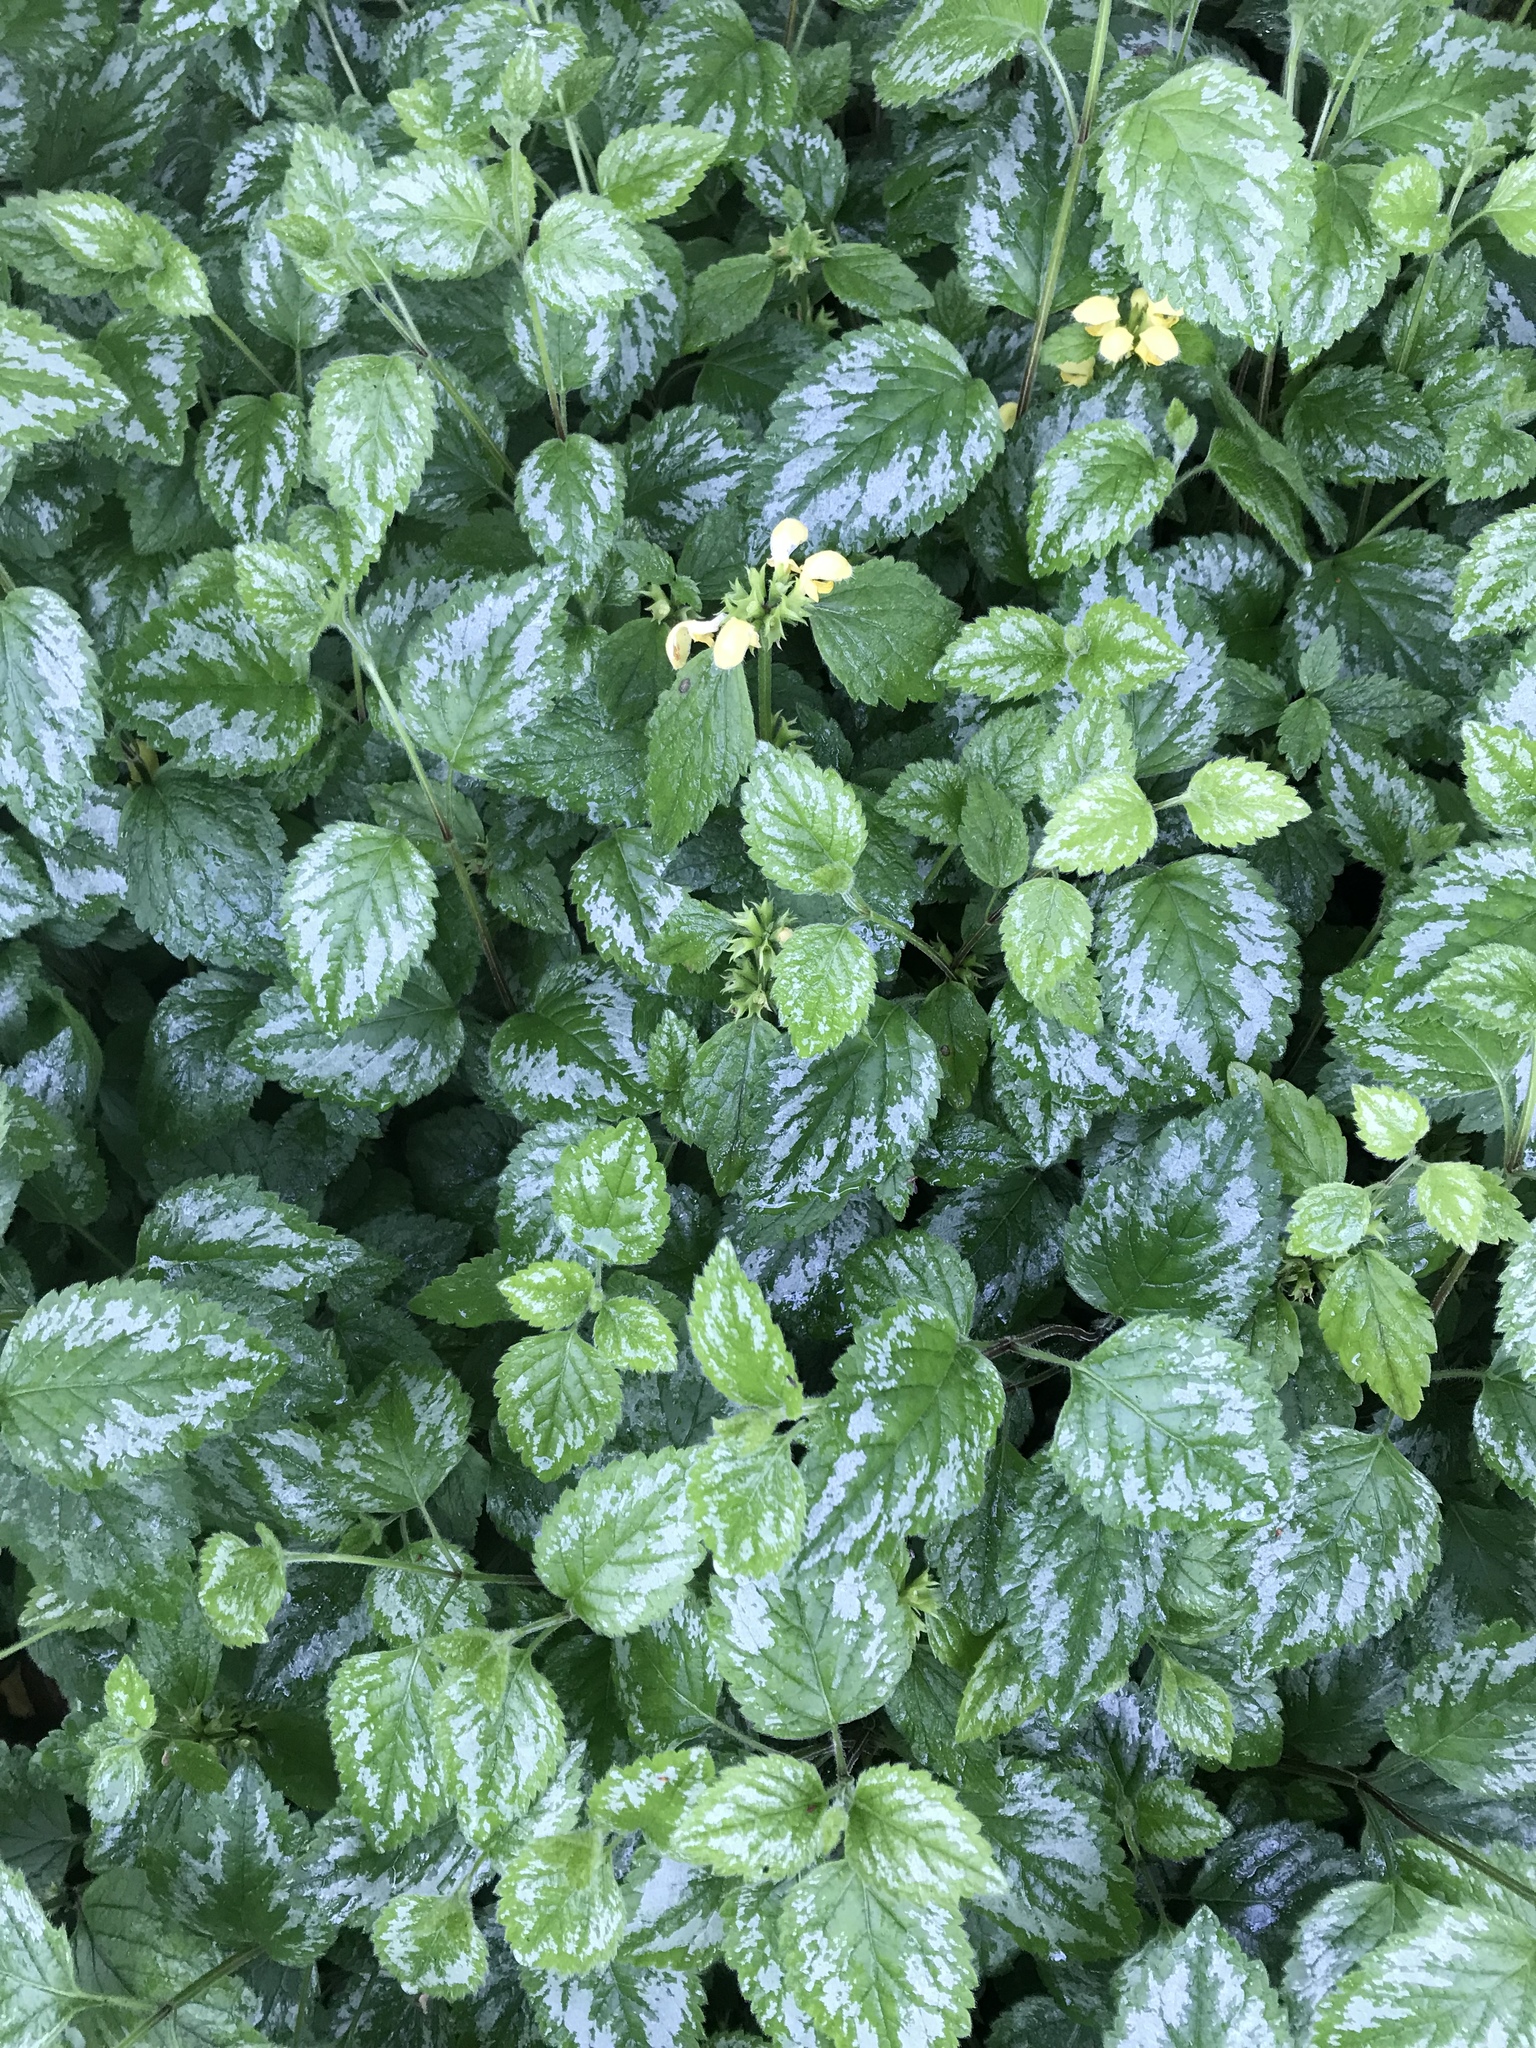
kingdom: Plantae
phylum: Tracheophyta
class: Magnoliopsida
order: Lamiales
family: Lamiaceae
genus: Lamium
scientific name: Lamium galeobdolon
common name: Yellow archangel
